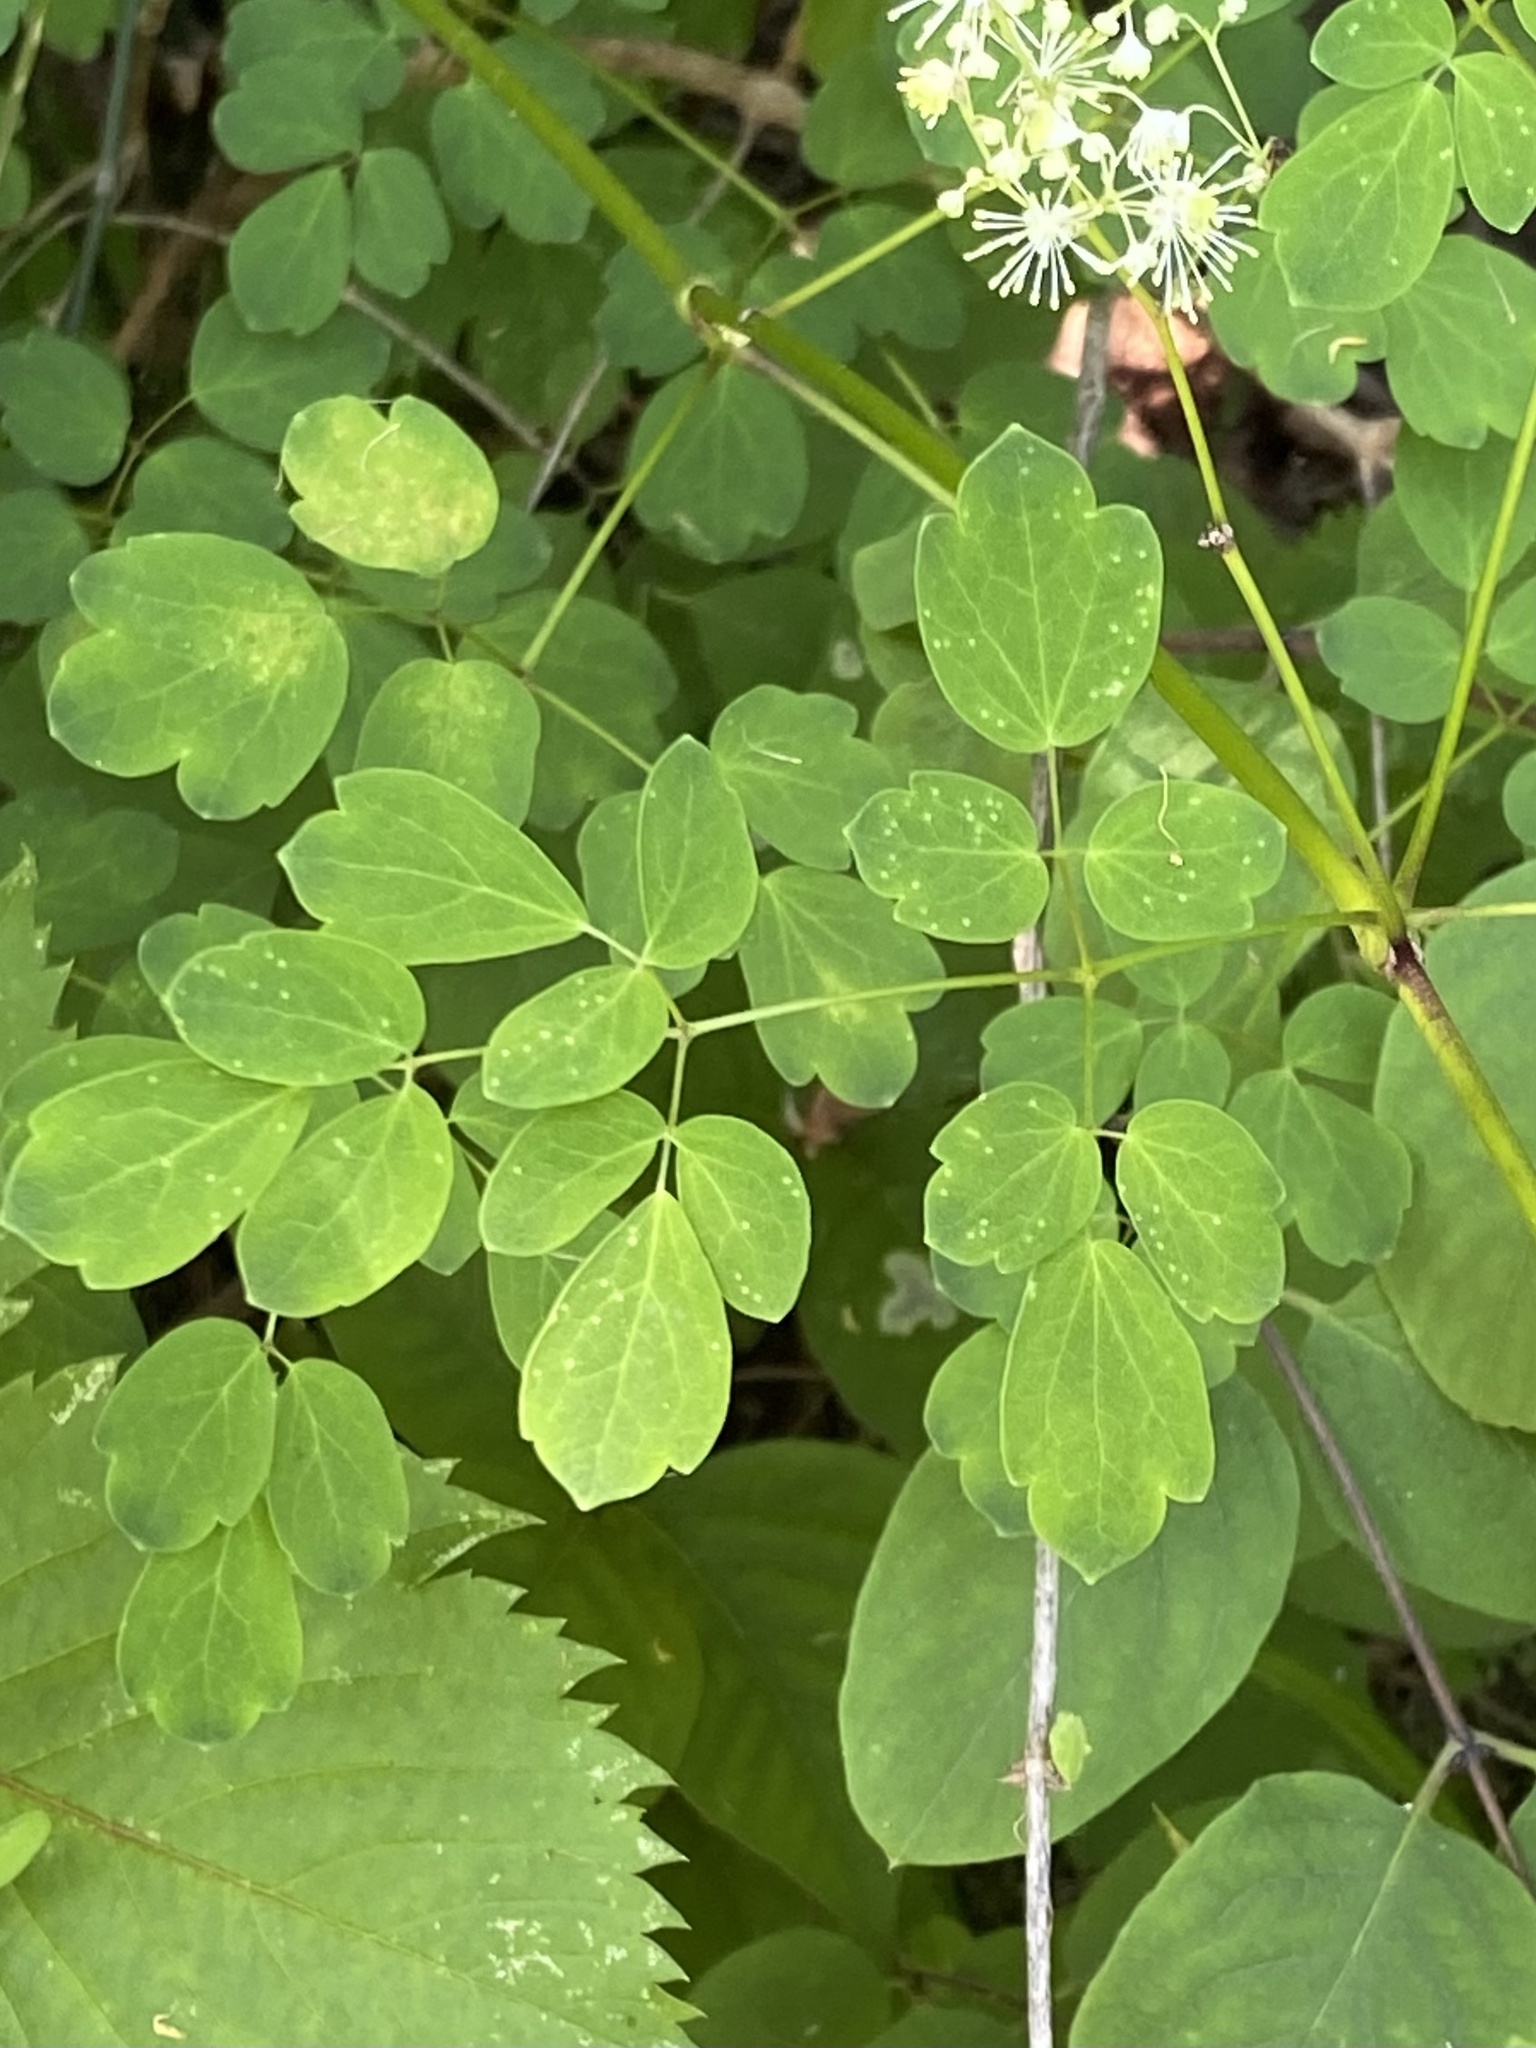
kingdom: Plantae
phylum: Tracheophyta
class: Magnoliopsida
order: Ranunculales
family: Ranunculaceae
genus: Thalictrum
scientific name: Thalictrum pubescens
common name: King-of-the-meadow
